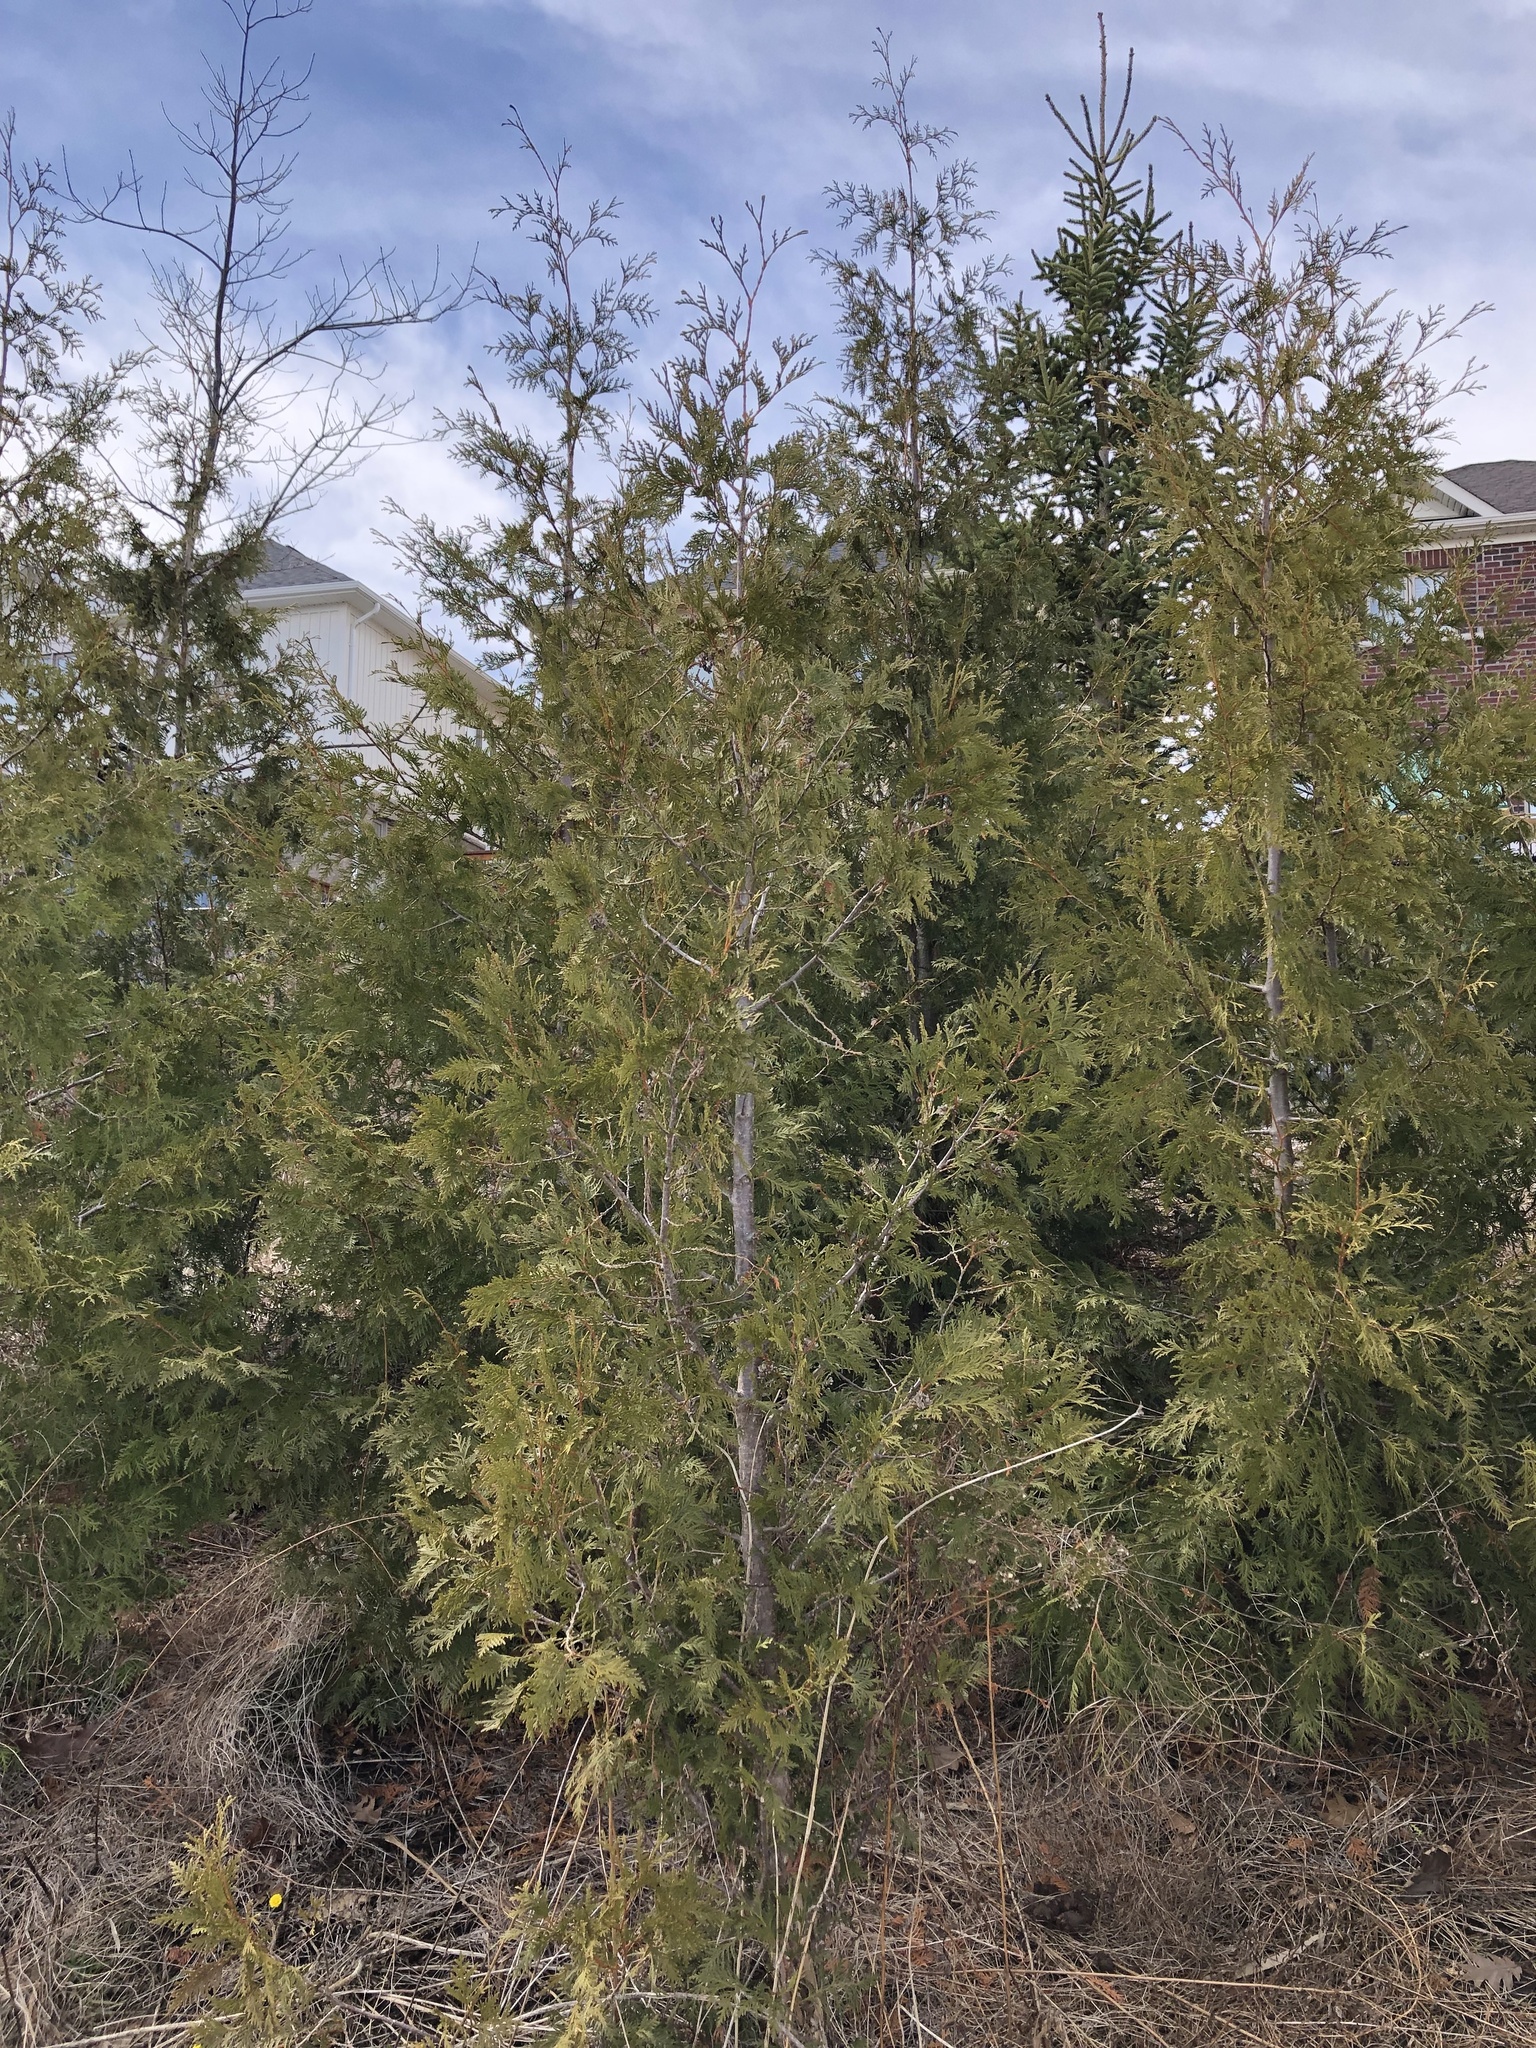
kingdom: Plantae
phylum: Tracheophyta
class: Pinopsida
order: Pinales
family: Cupressaceae
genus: Thuja
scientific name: Thuja occidentalis
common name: Northern white-cedar
